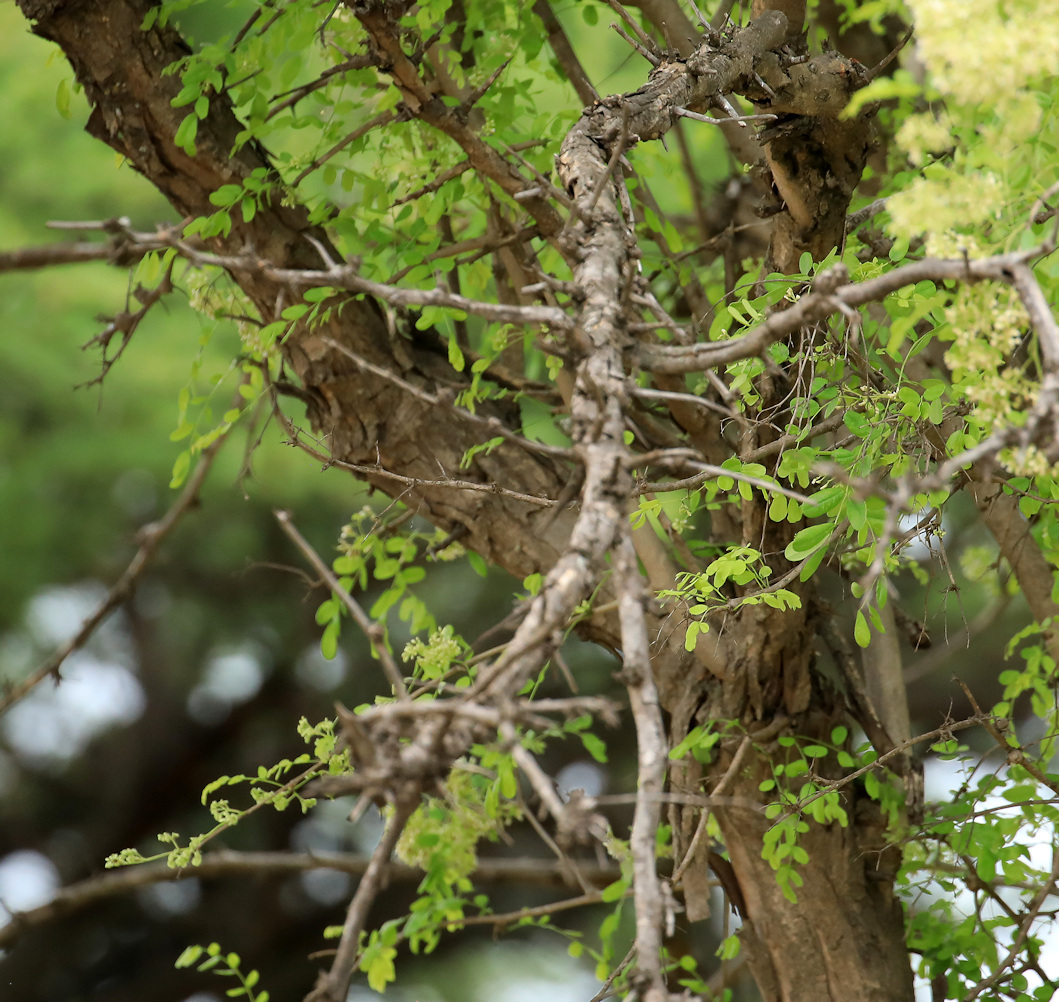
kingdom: Plantae
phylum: Tracheophyta
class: Magnoliopsida
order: Fabales
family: Fabaceae
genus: Dalbergia
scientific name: Dalbergia melanoxylon
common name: African blackwood
